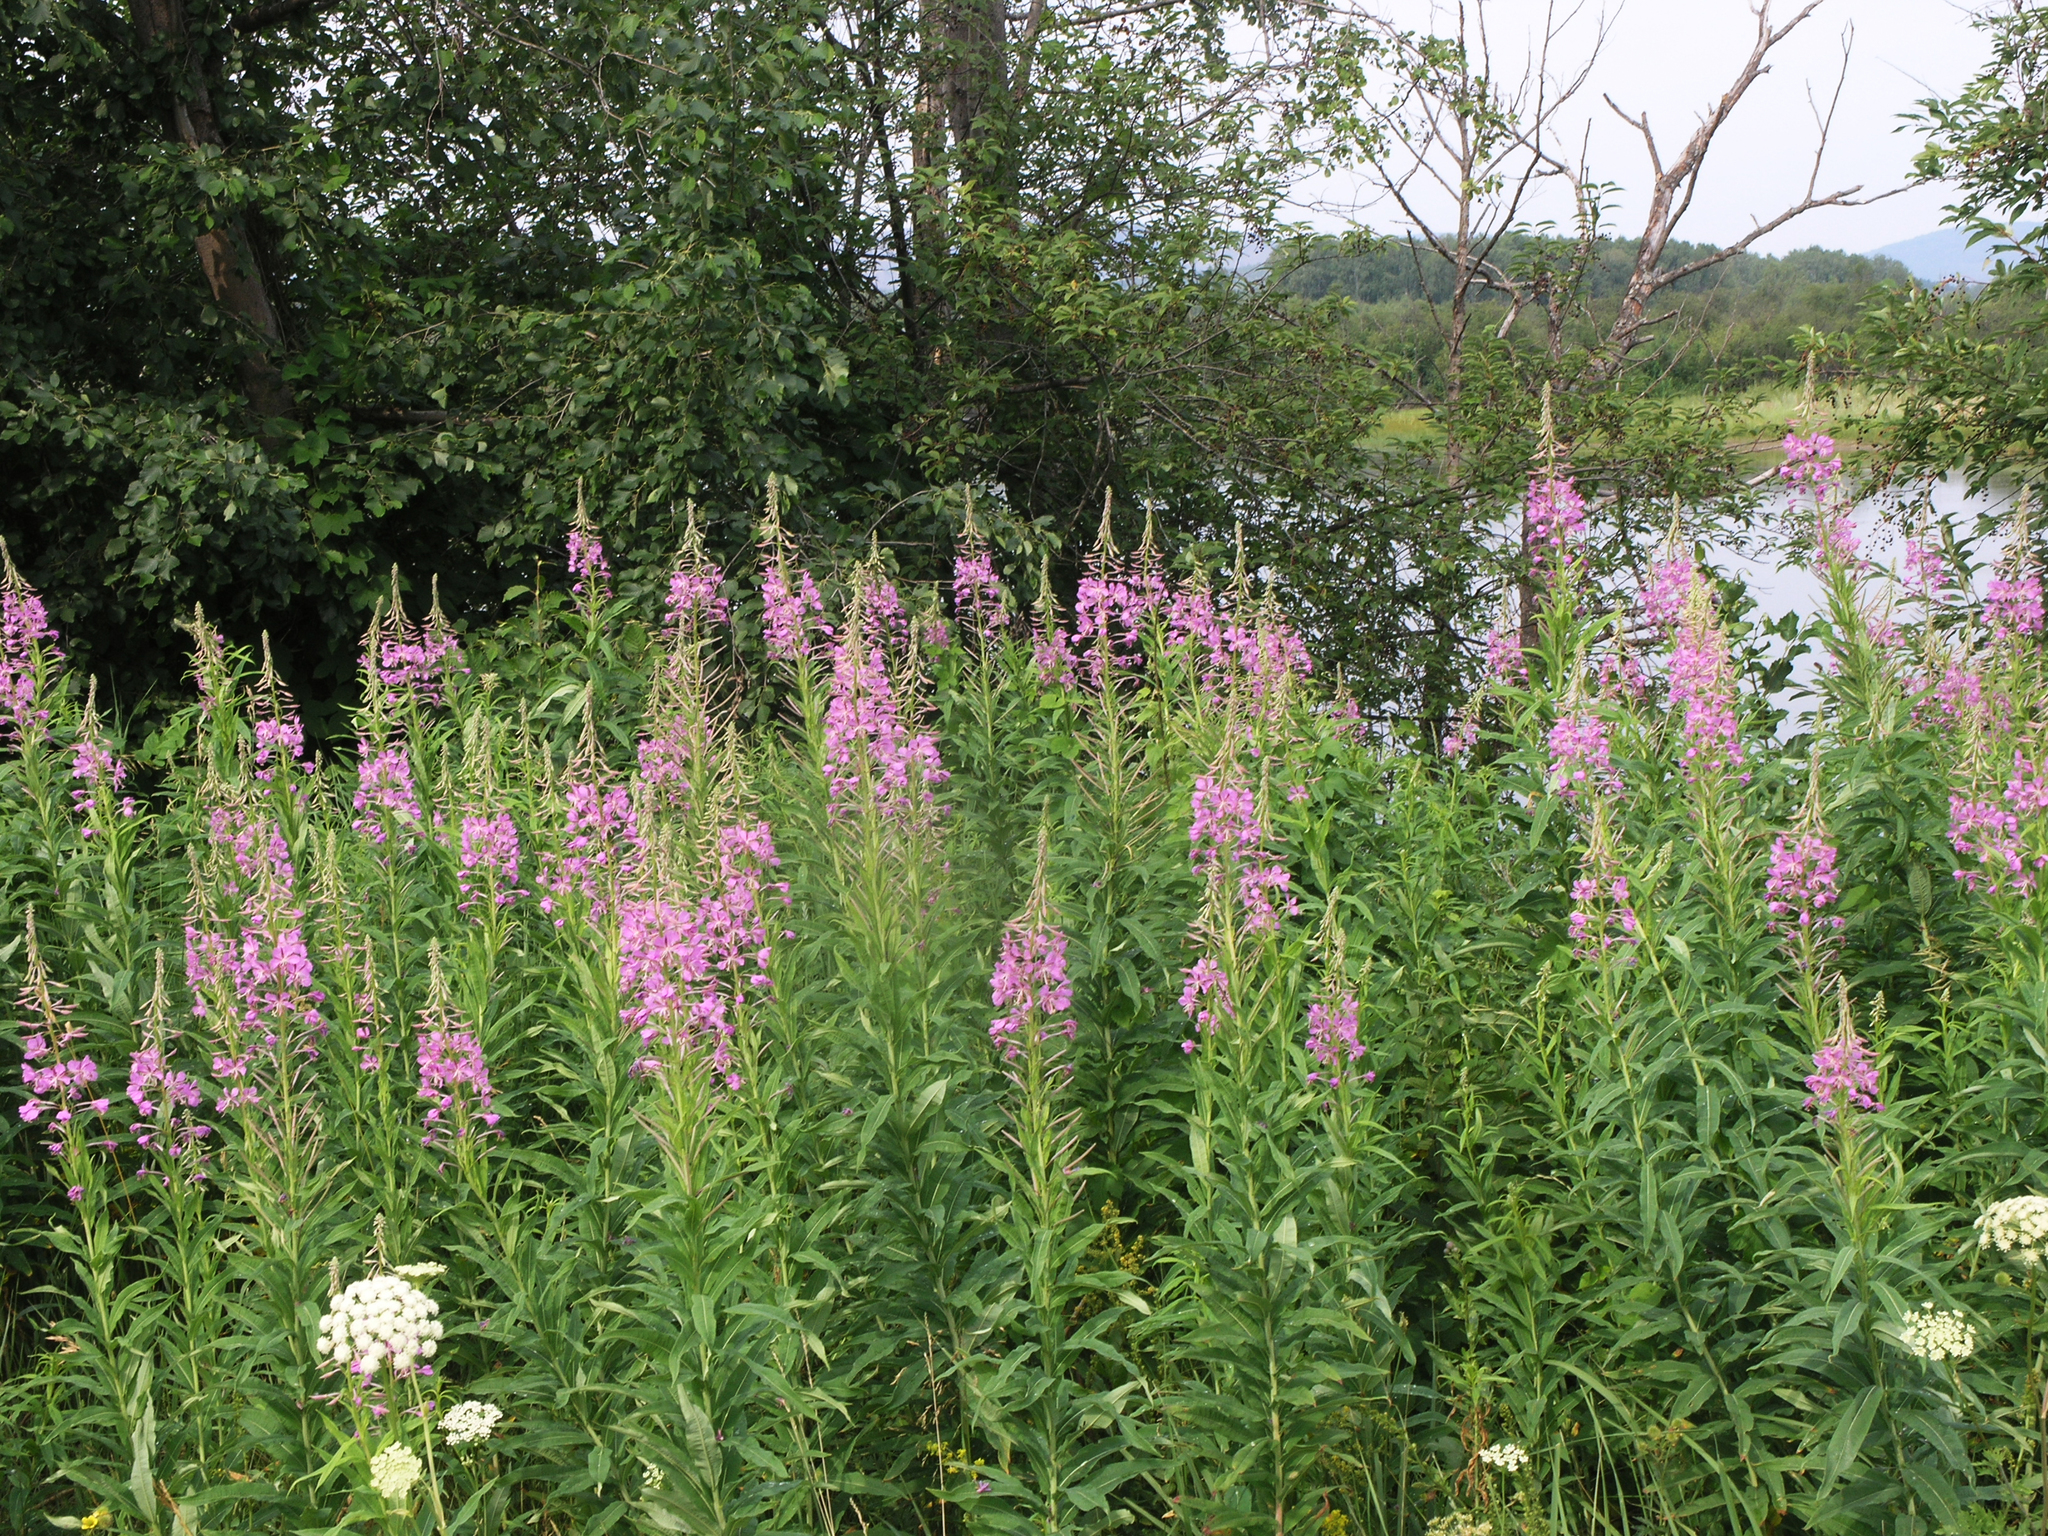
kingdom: Plantae
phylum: Tracheophyta
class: Magnoliopsida
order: Myrtales
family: Onagraceae
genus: Chamaenerion
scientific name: Chamaenerion angustifolium
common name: Fireweed
